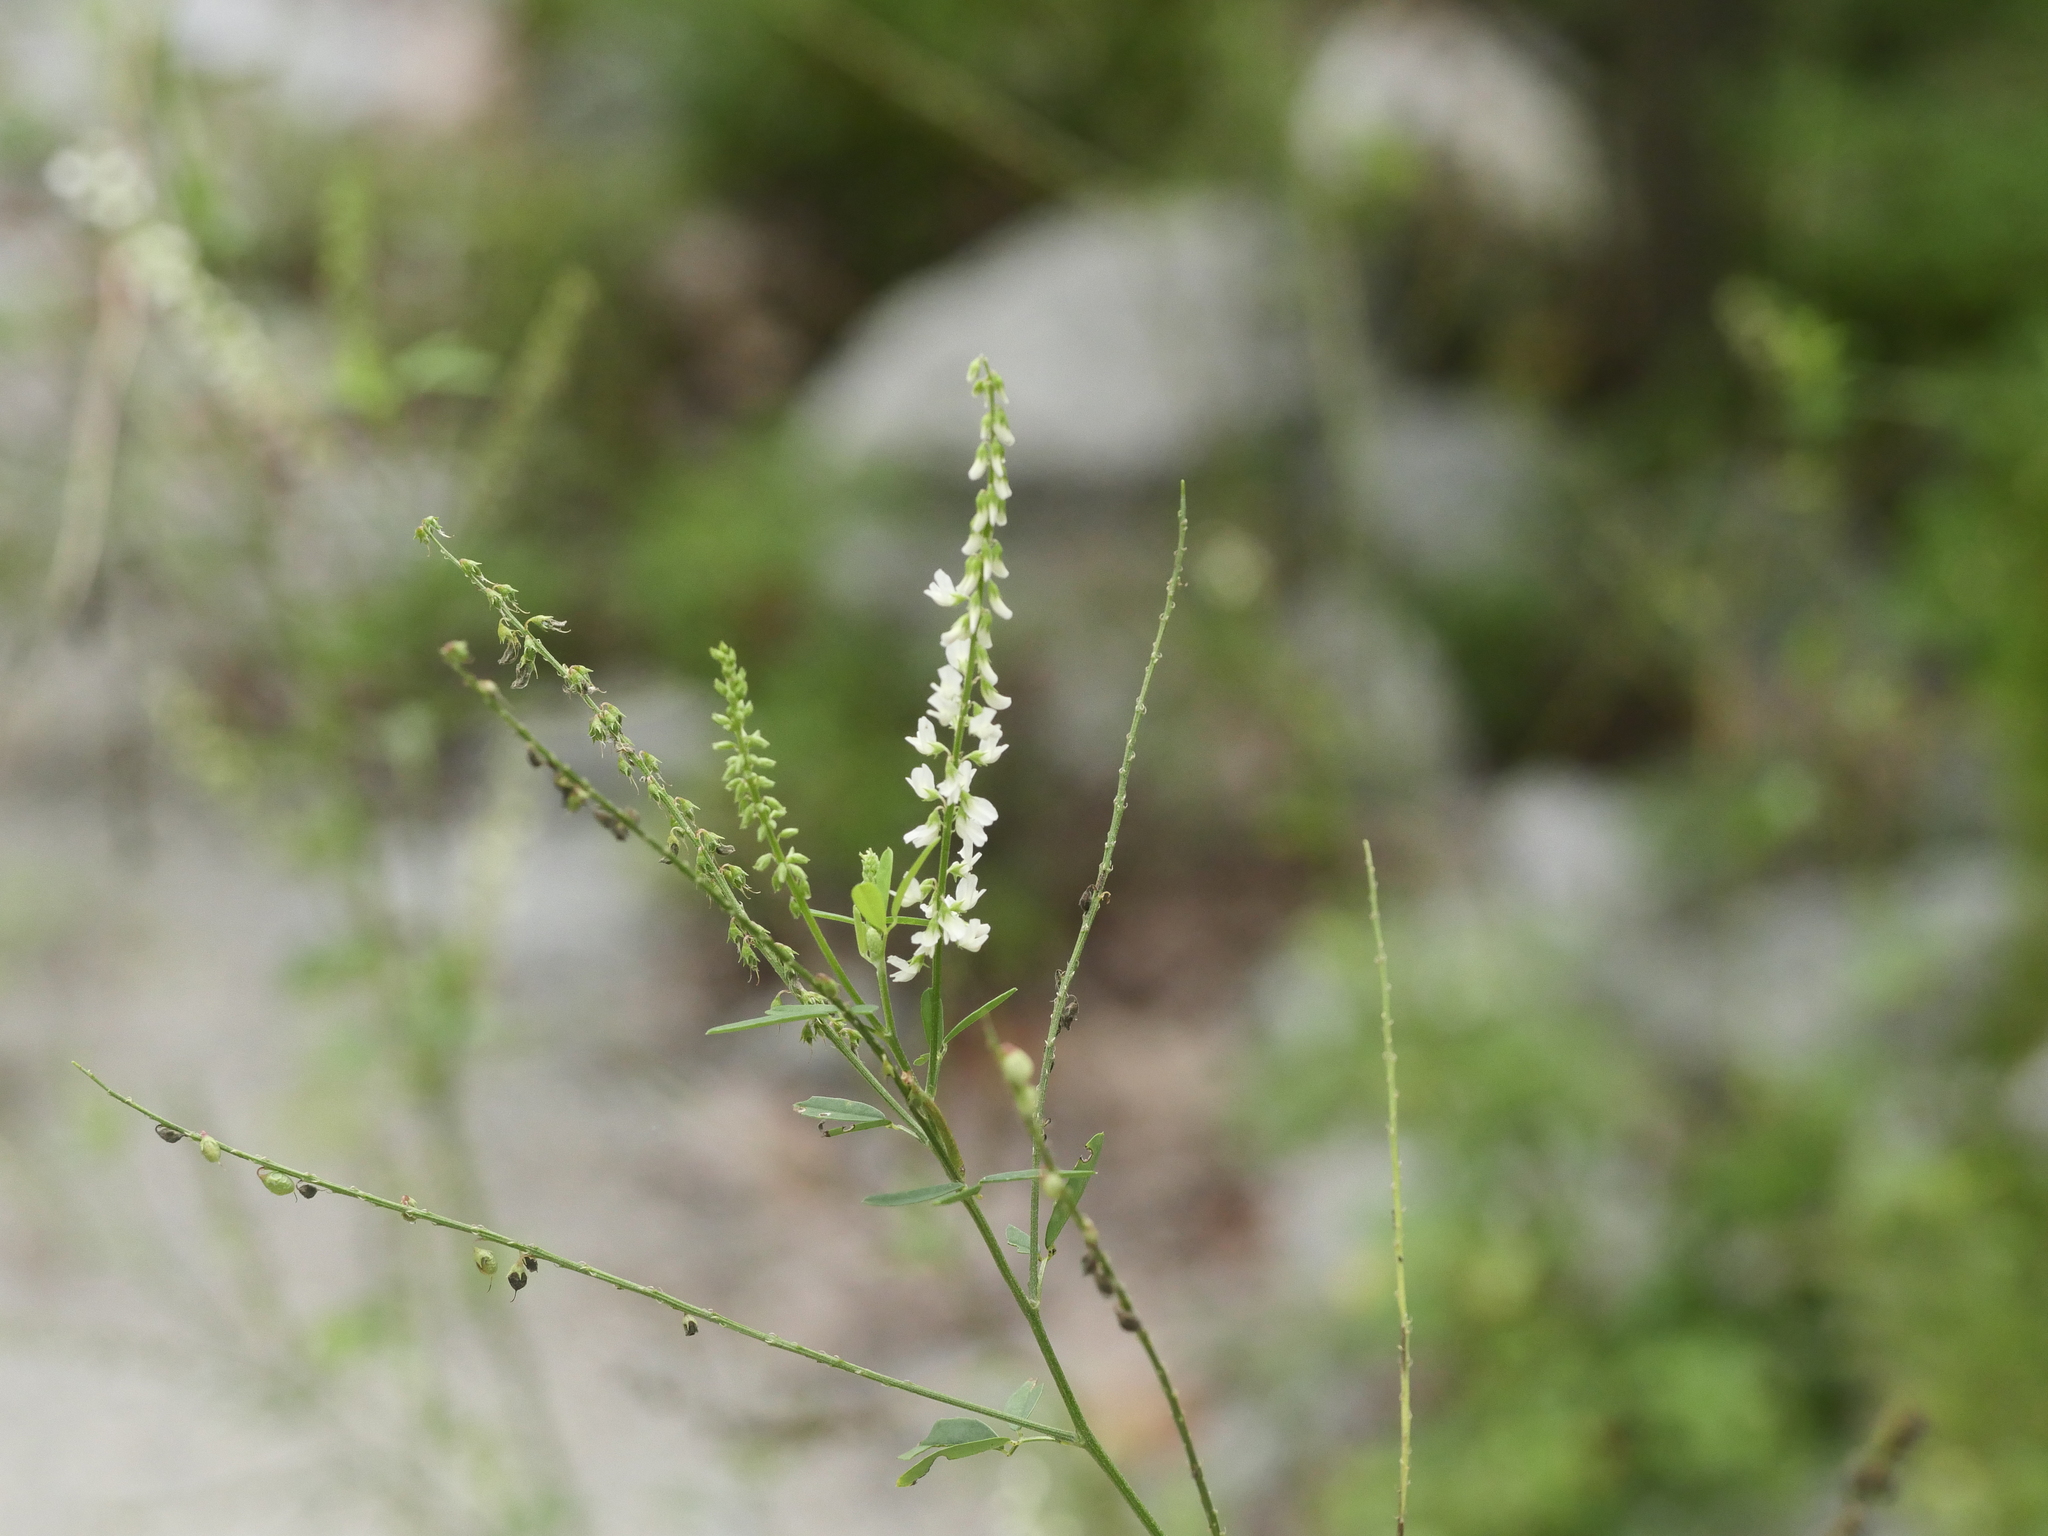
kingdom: Plantae
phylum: Tracheophyta
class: Magnoliopsida
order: Fabales
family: Fabaceae
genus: Melilotus
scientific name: Melilotus albus
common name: White melilot
